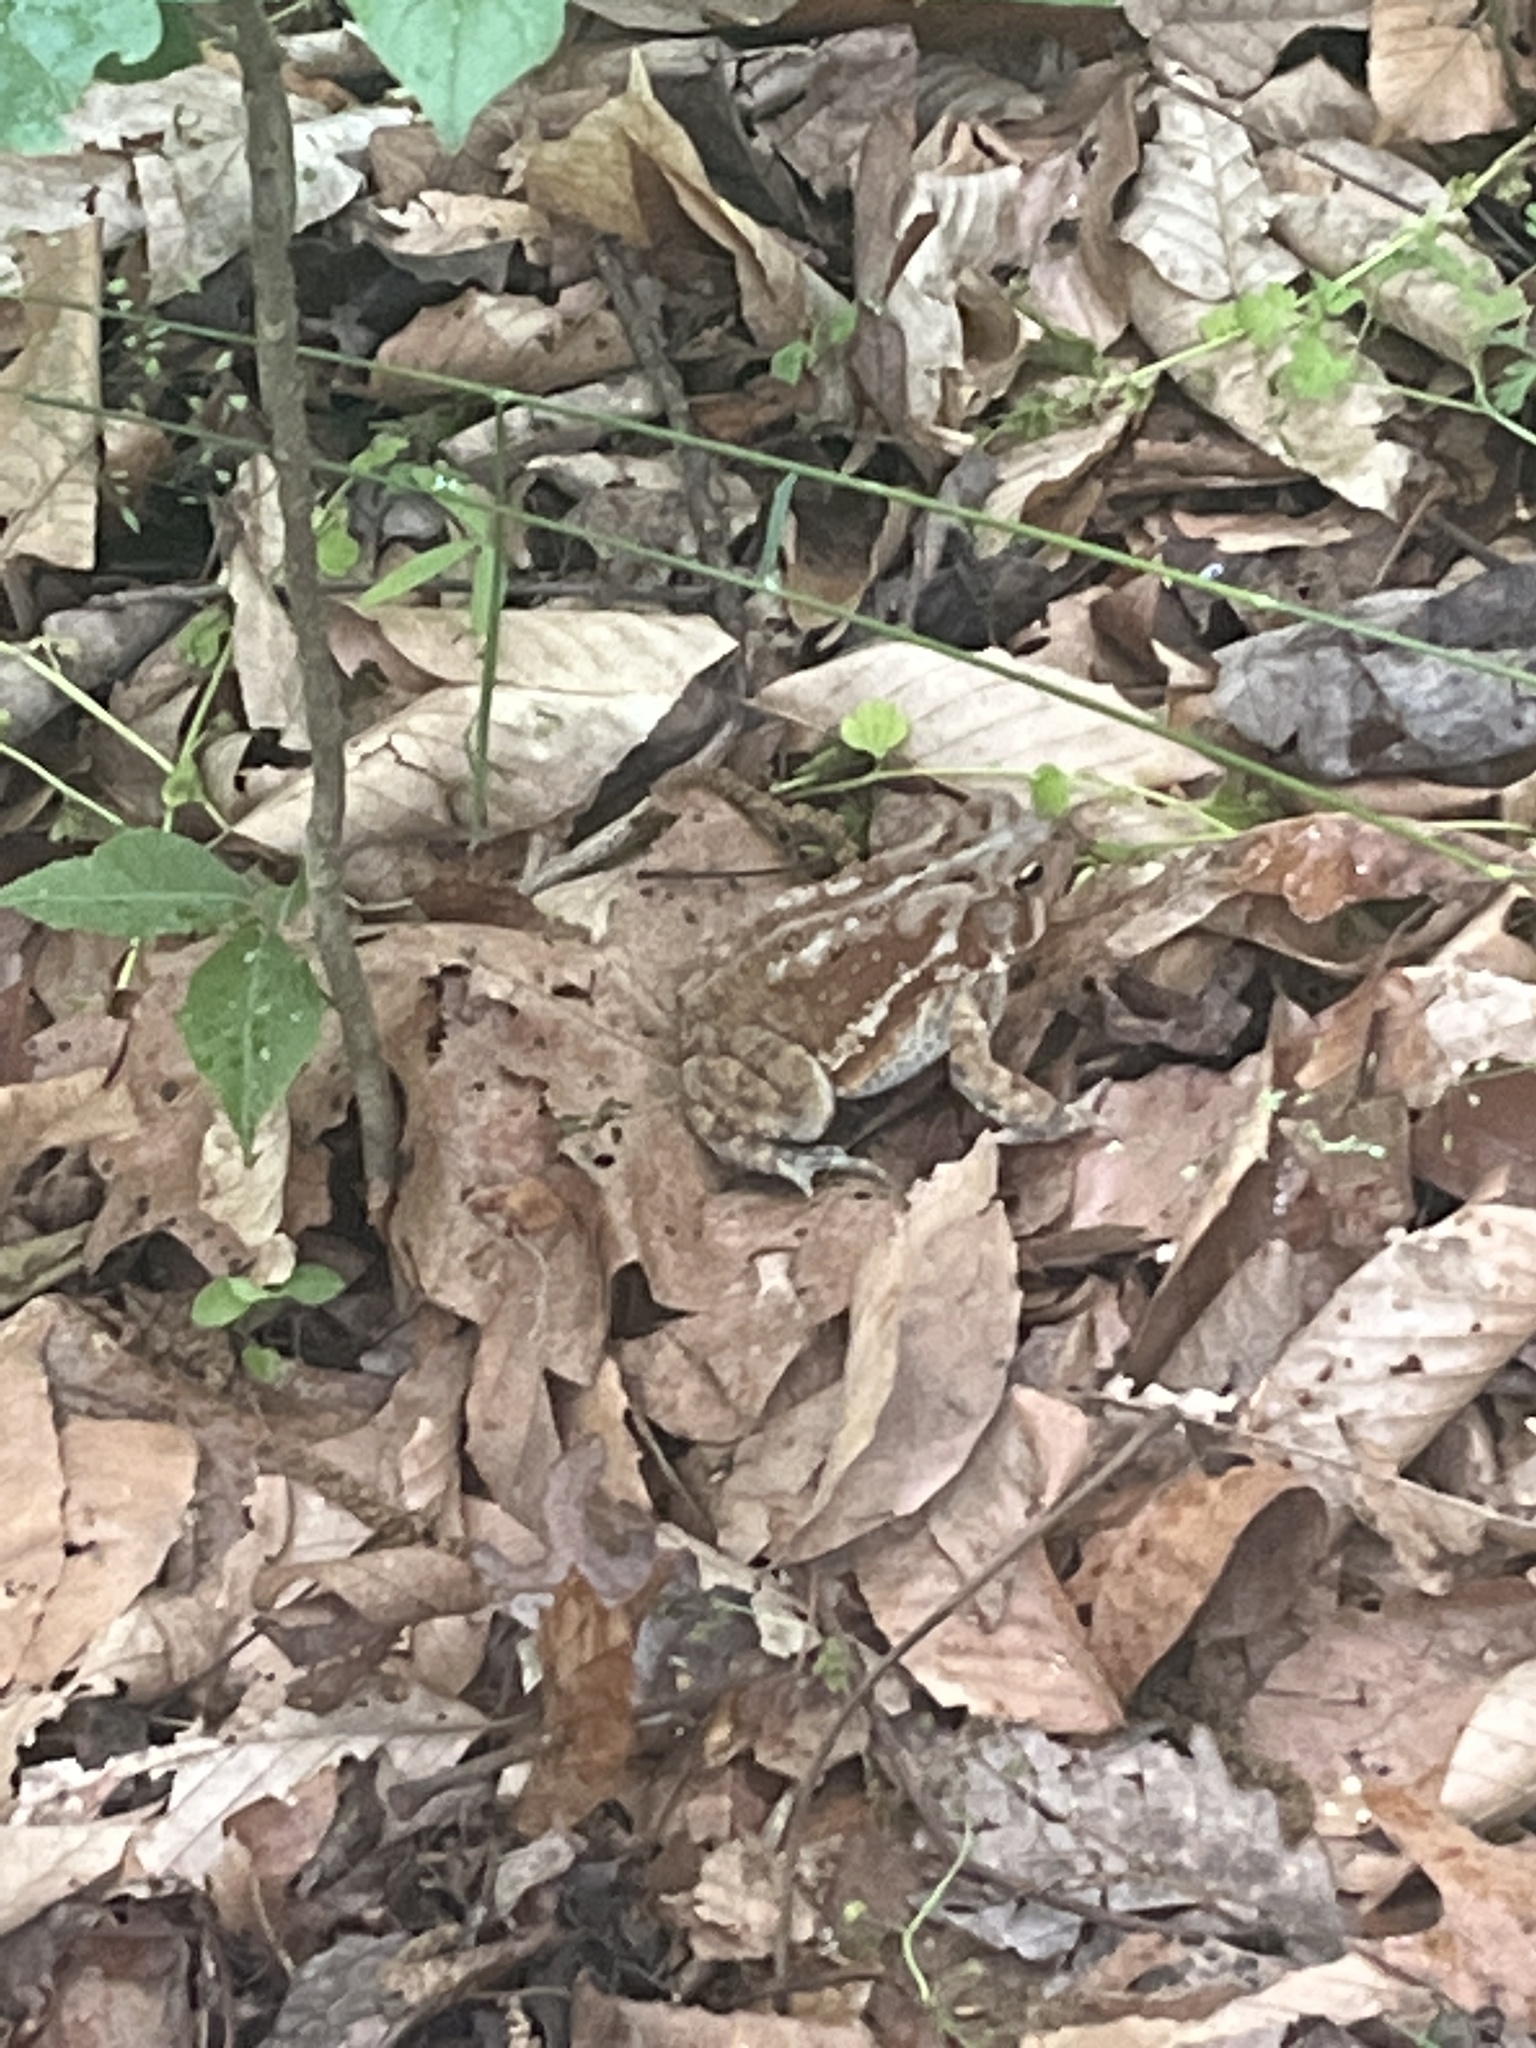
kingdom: Animalia
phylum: Chordata
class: Amphibia
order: Anura
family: Bufonidae
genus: Anaxyrus
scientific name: Anaxyrus americanus
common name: American toad
